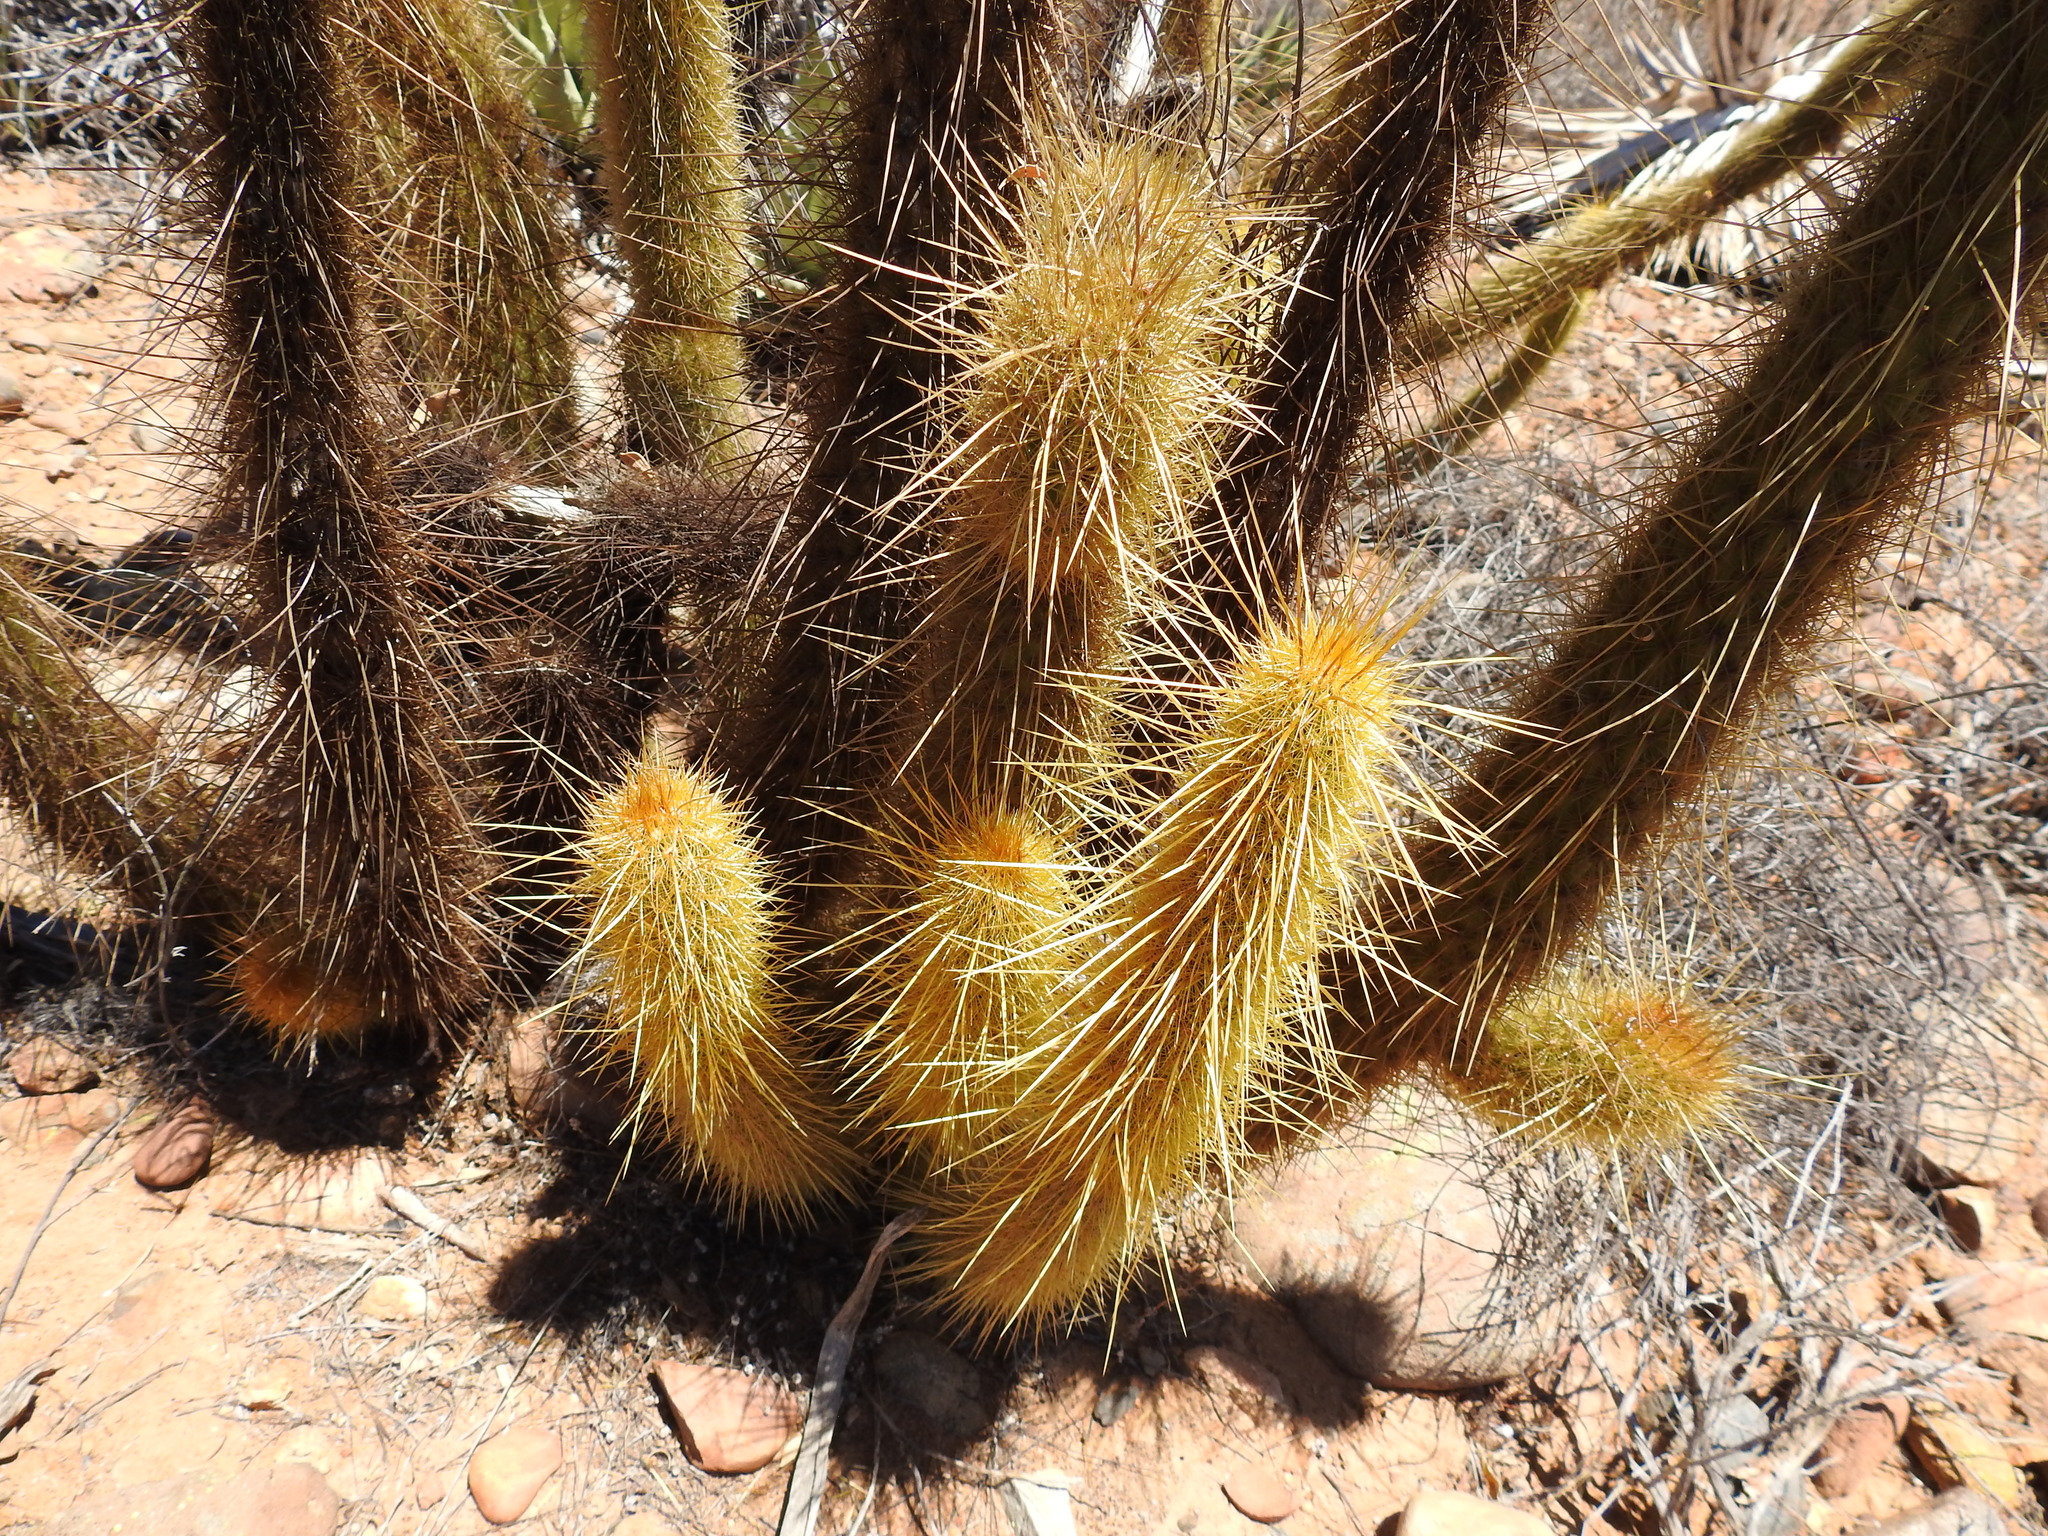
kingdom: Plantae
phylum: Tracheophyta
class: Magnoliopsida
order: Caryophyllales
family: Cactaceae
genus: Bergerocactus
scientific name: Bergerocactus emoryi
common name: Golden snakecactus
